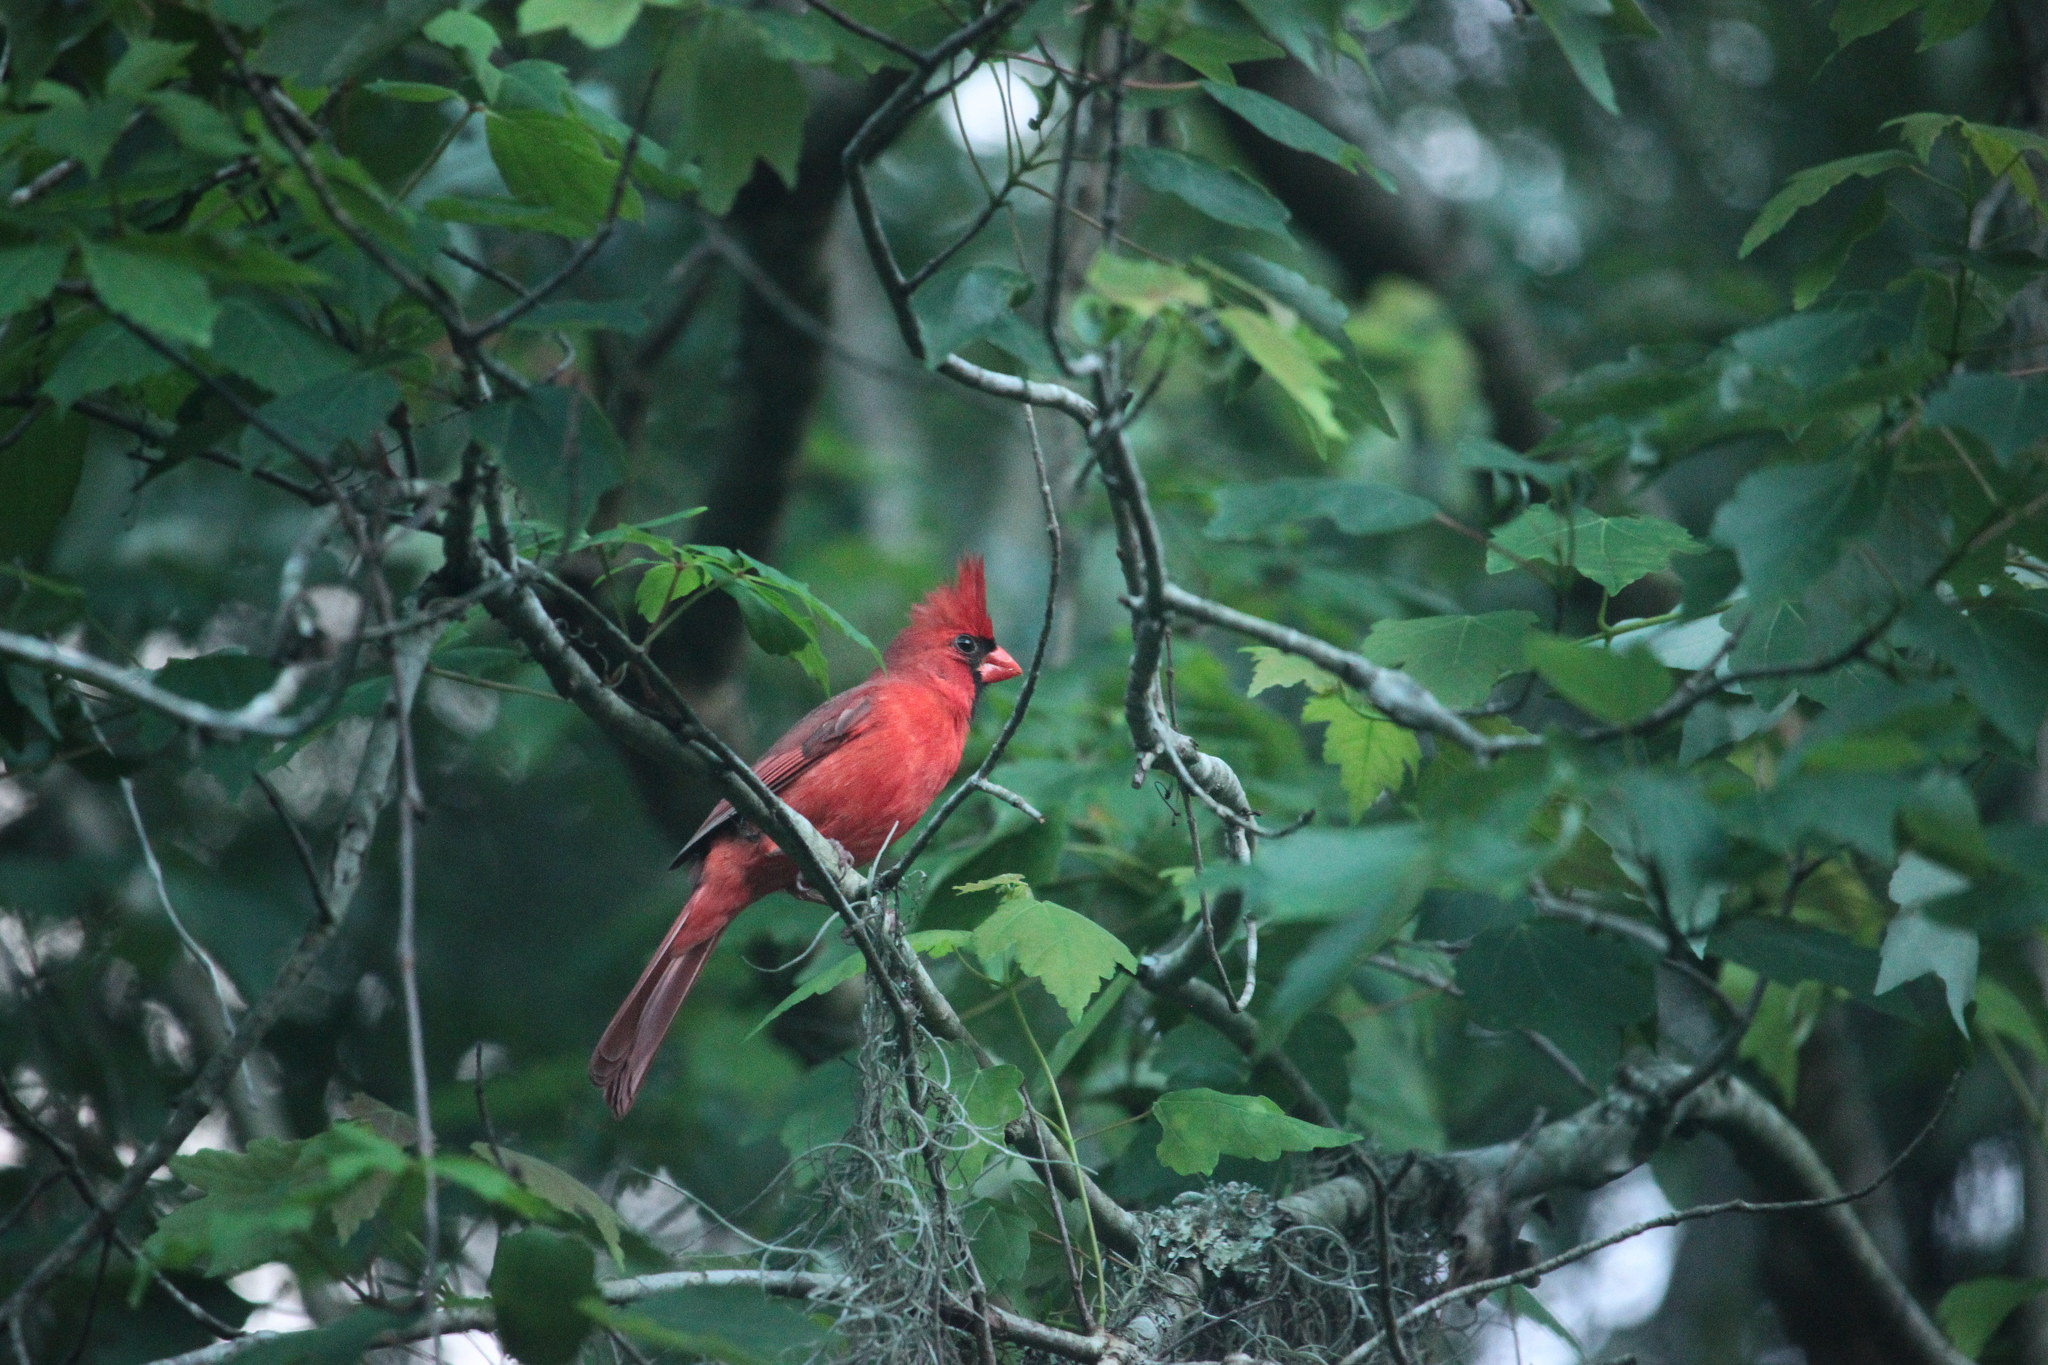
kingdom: Animalia
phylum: Chordata
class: Aves
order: Passeriformes
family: Cardinalidae
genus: Cardinalis
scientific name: Cardinalis cardinalis
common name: Northern cardinal
